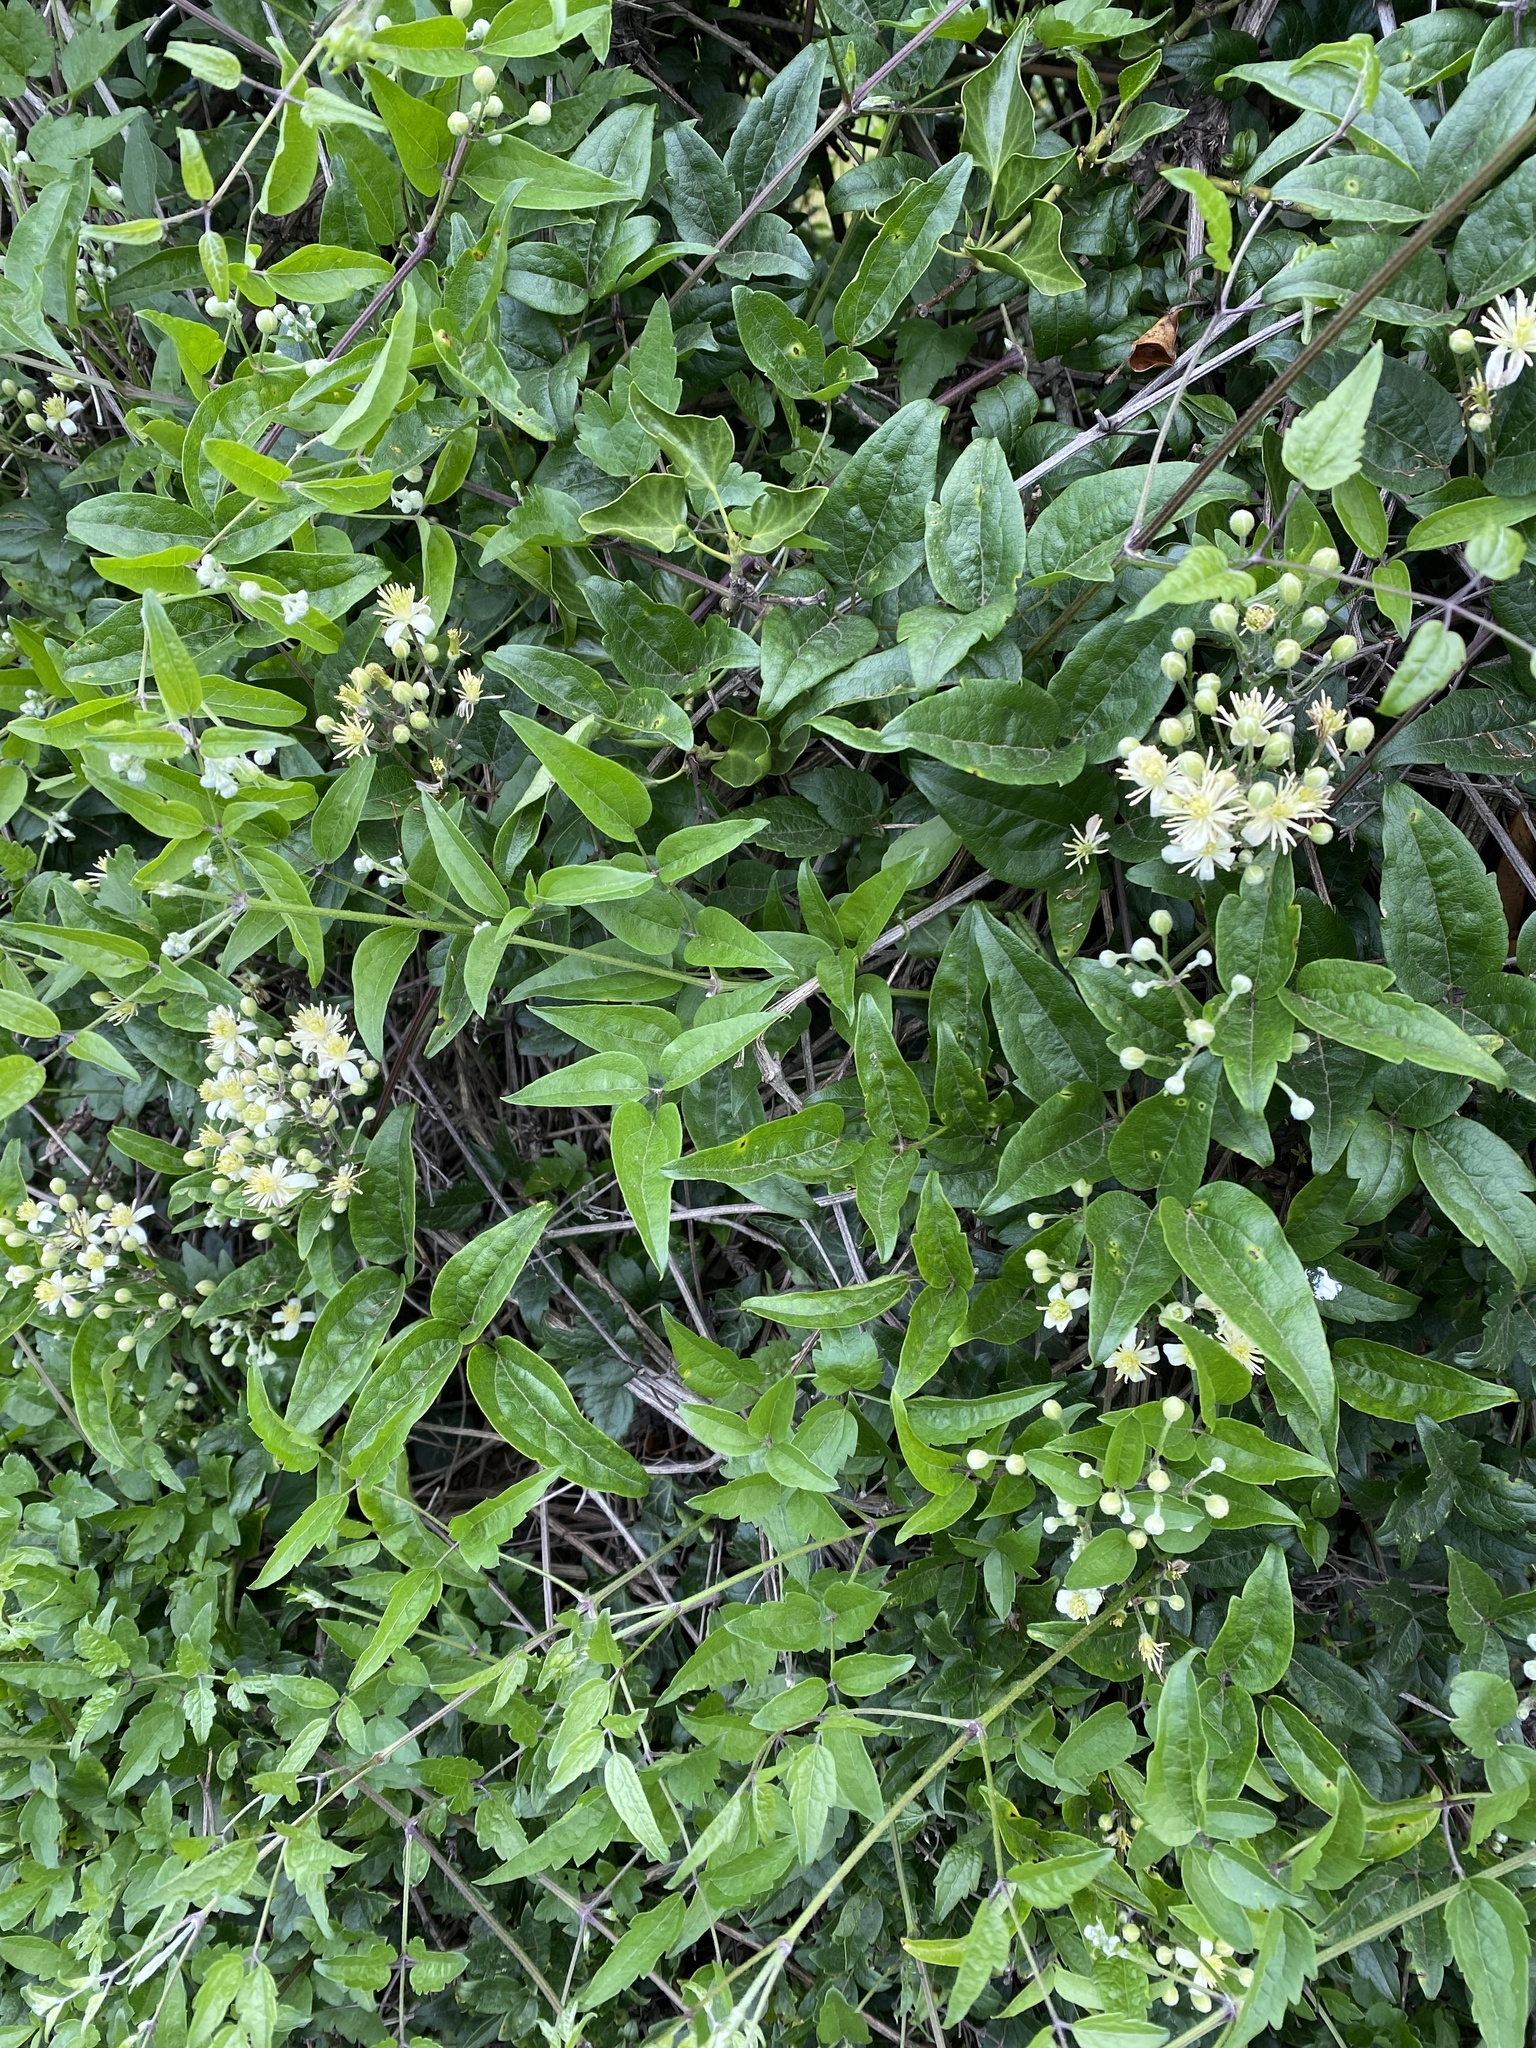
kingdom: Plantae
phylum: Tracheophyta
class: Magnoliopsida
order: Ranunculales
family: Ranunculaceae
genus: Clematis
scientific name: Clematis vitalba
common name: Evergreen clematis
